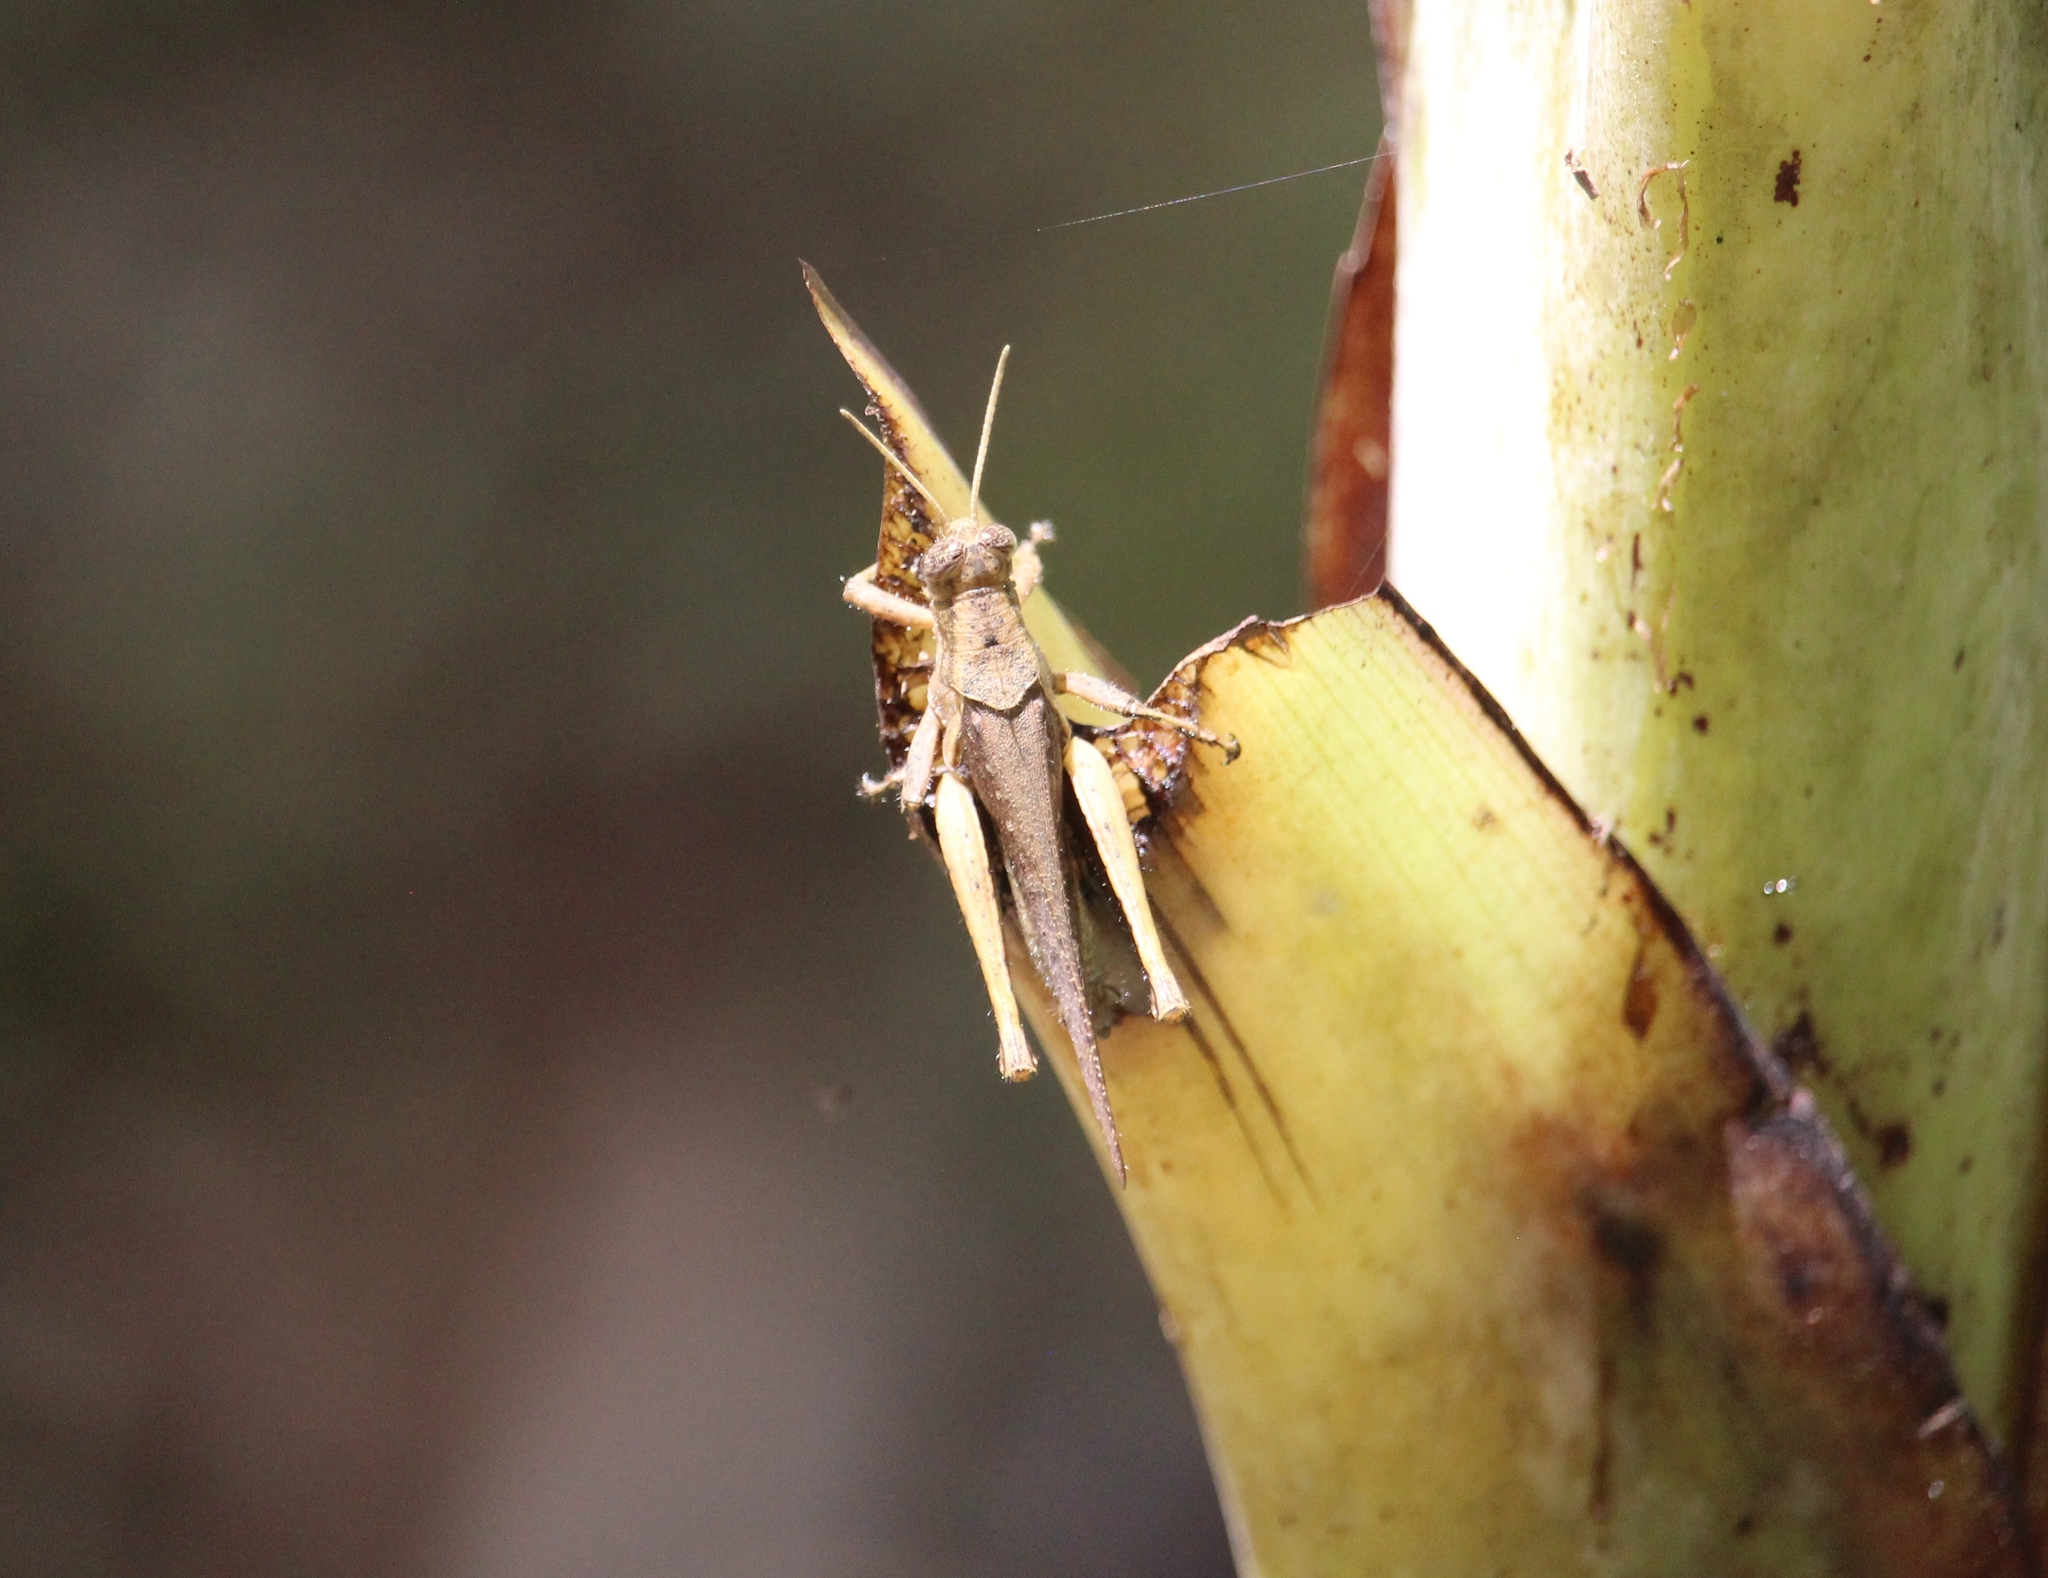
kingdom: Animalia
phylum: Arthropoda
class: Insecta
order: Orthoptera
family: Acrididae
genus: Abracris
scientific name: Abracris flavolineata
